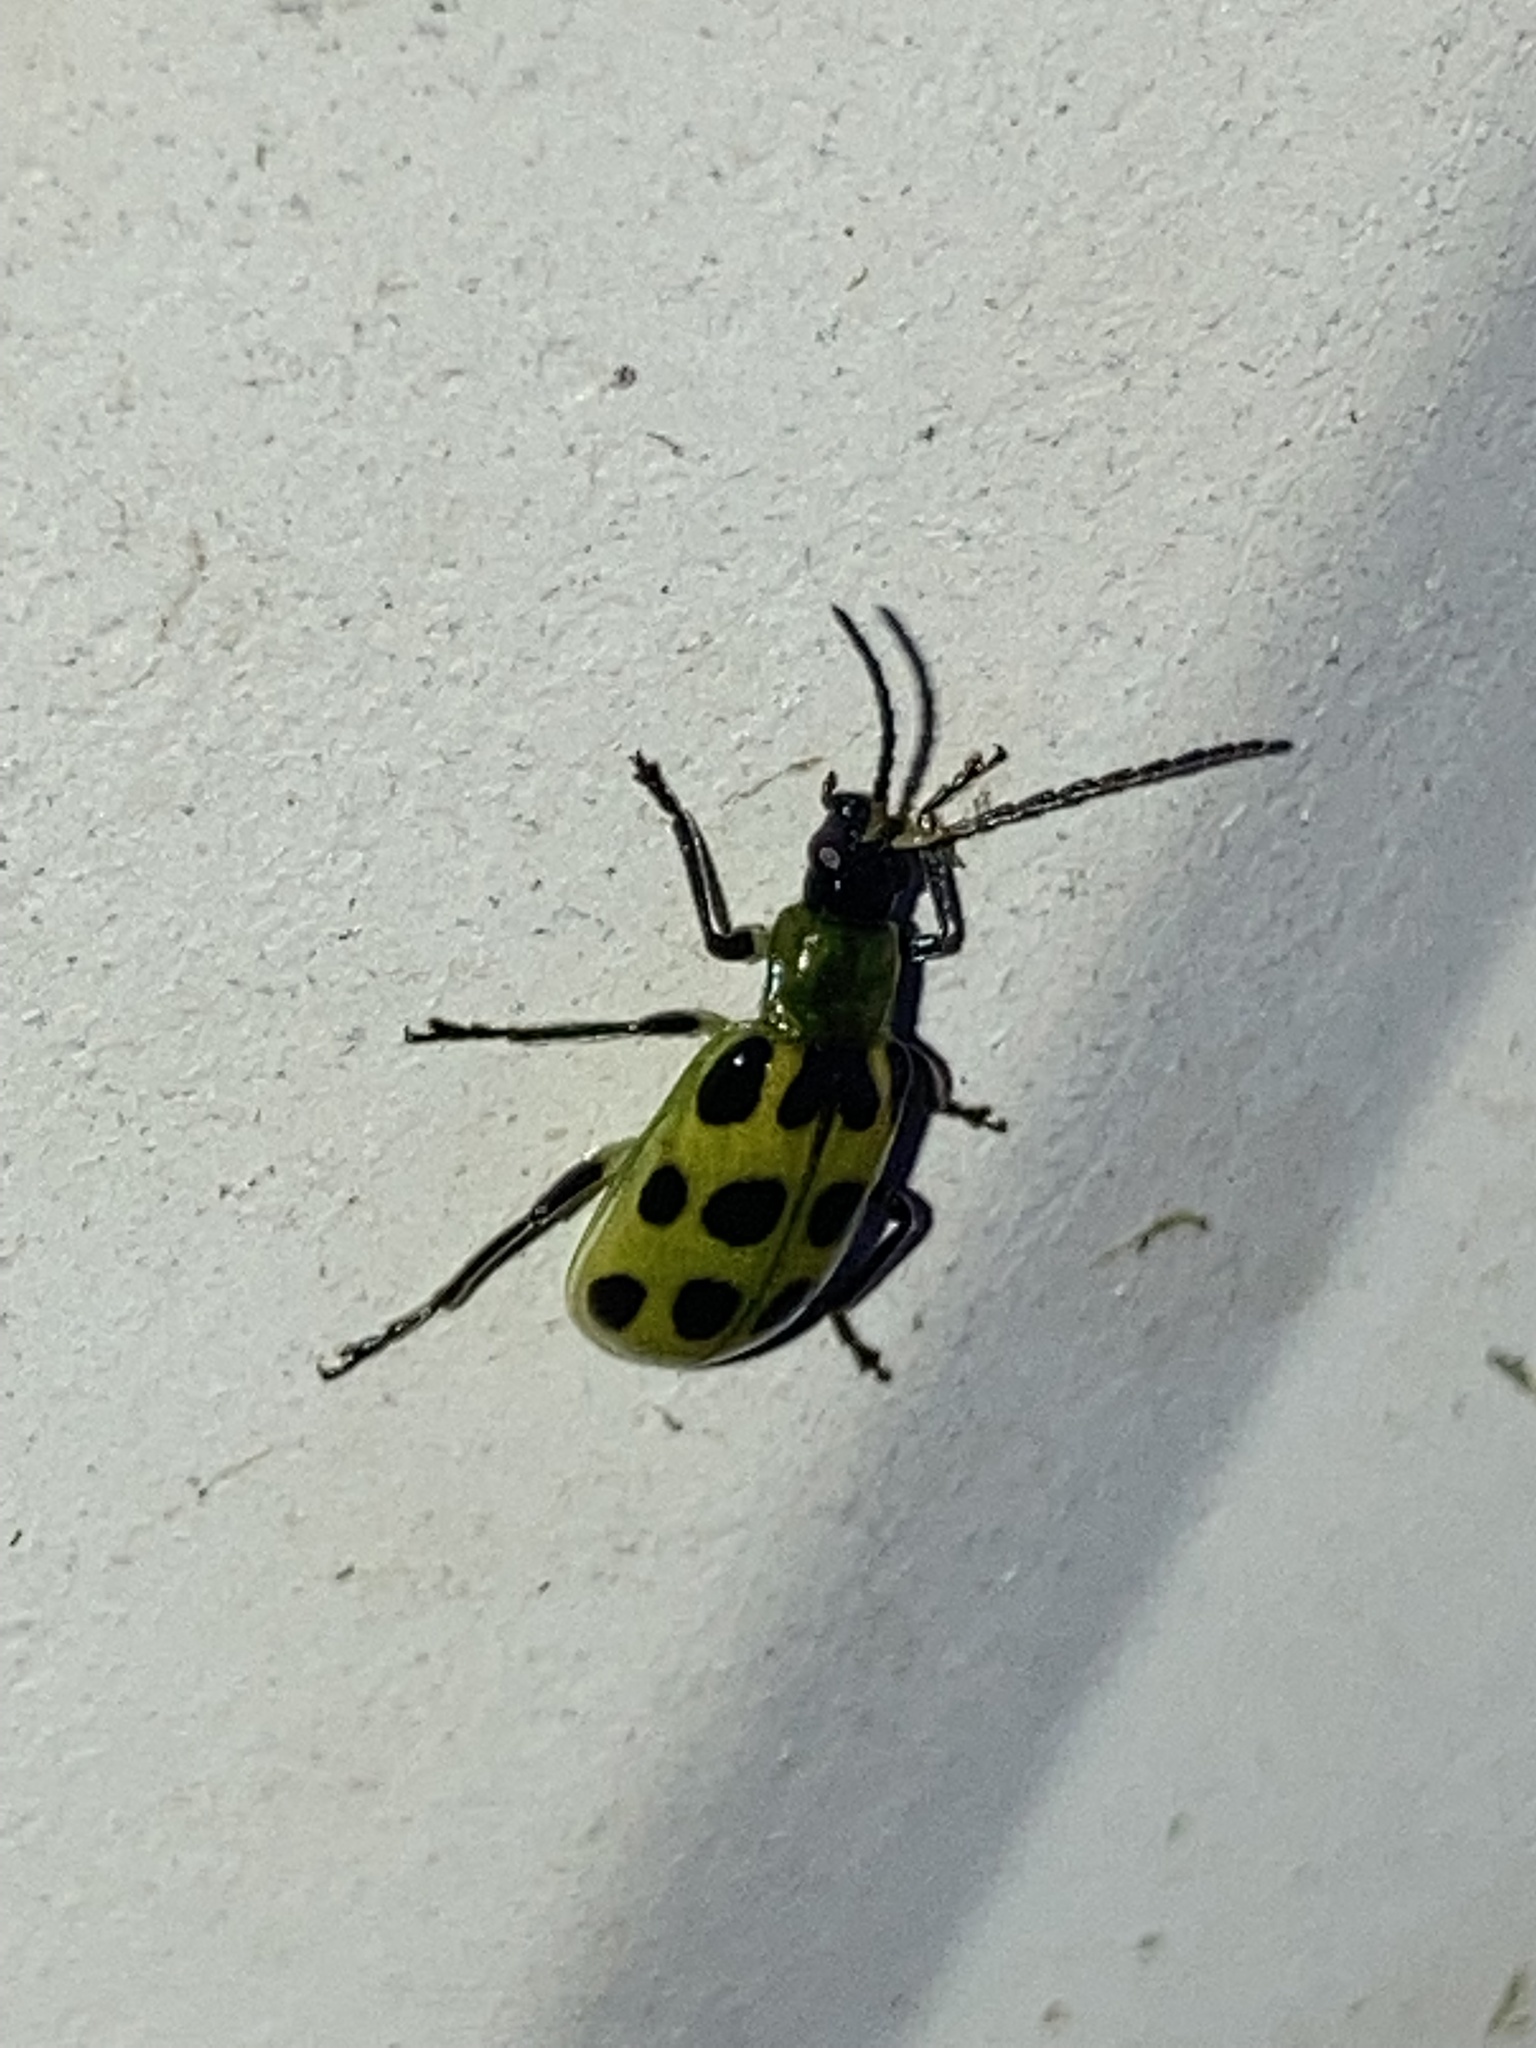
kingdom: Animalia
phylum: Arthropoda
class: Insecta
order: Coleoptera
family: Chrysomelidae
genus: Diabrotica
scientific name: Diabrotica undecimpunctata
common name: Spotted cucumber beetle
